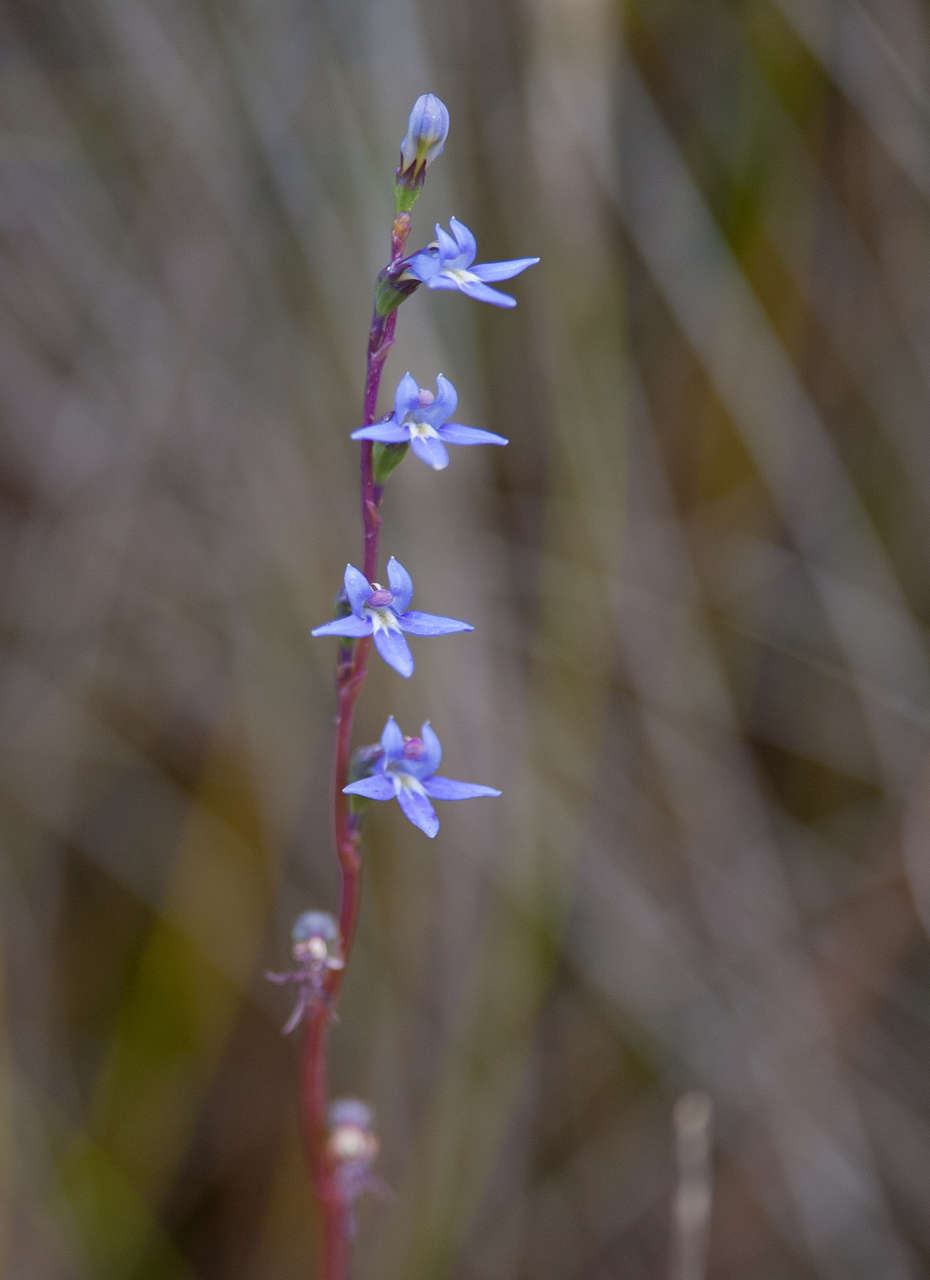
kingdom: Plantae
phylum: Tracheophyta
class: Magnoliopsida
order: Asterales
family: Campanulaceae
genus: Lobelia
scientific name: Lobelia gibbosa
